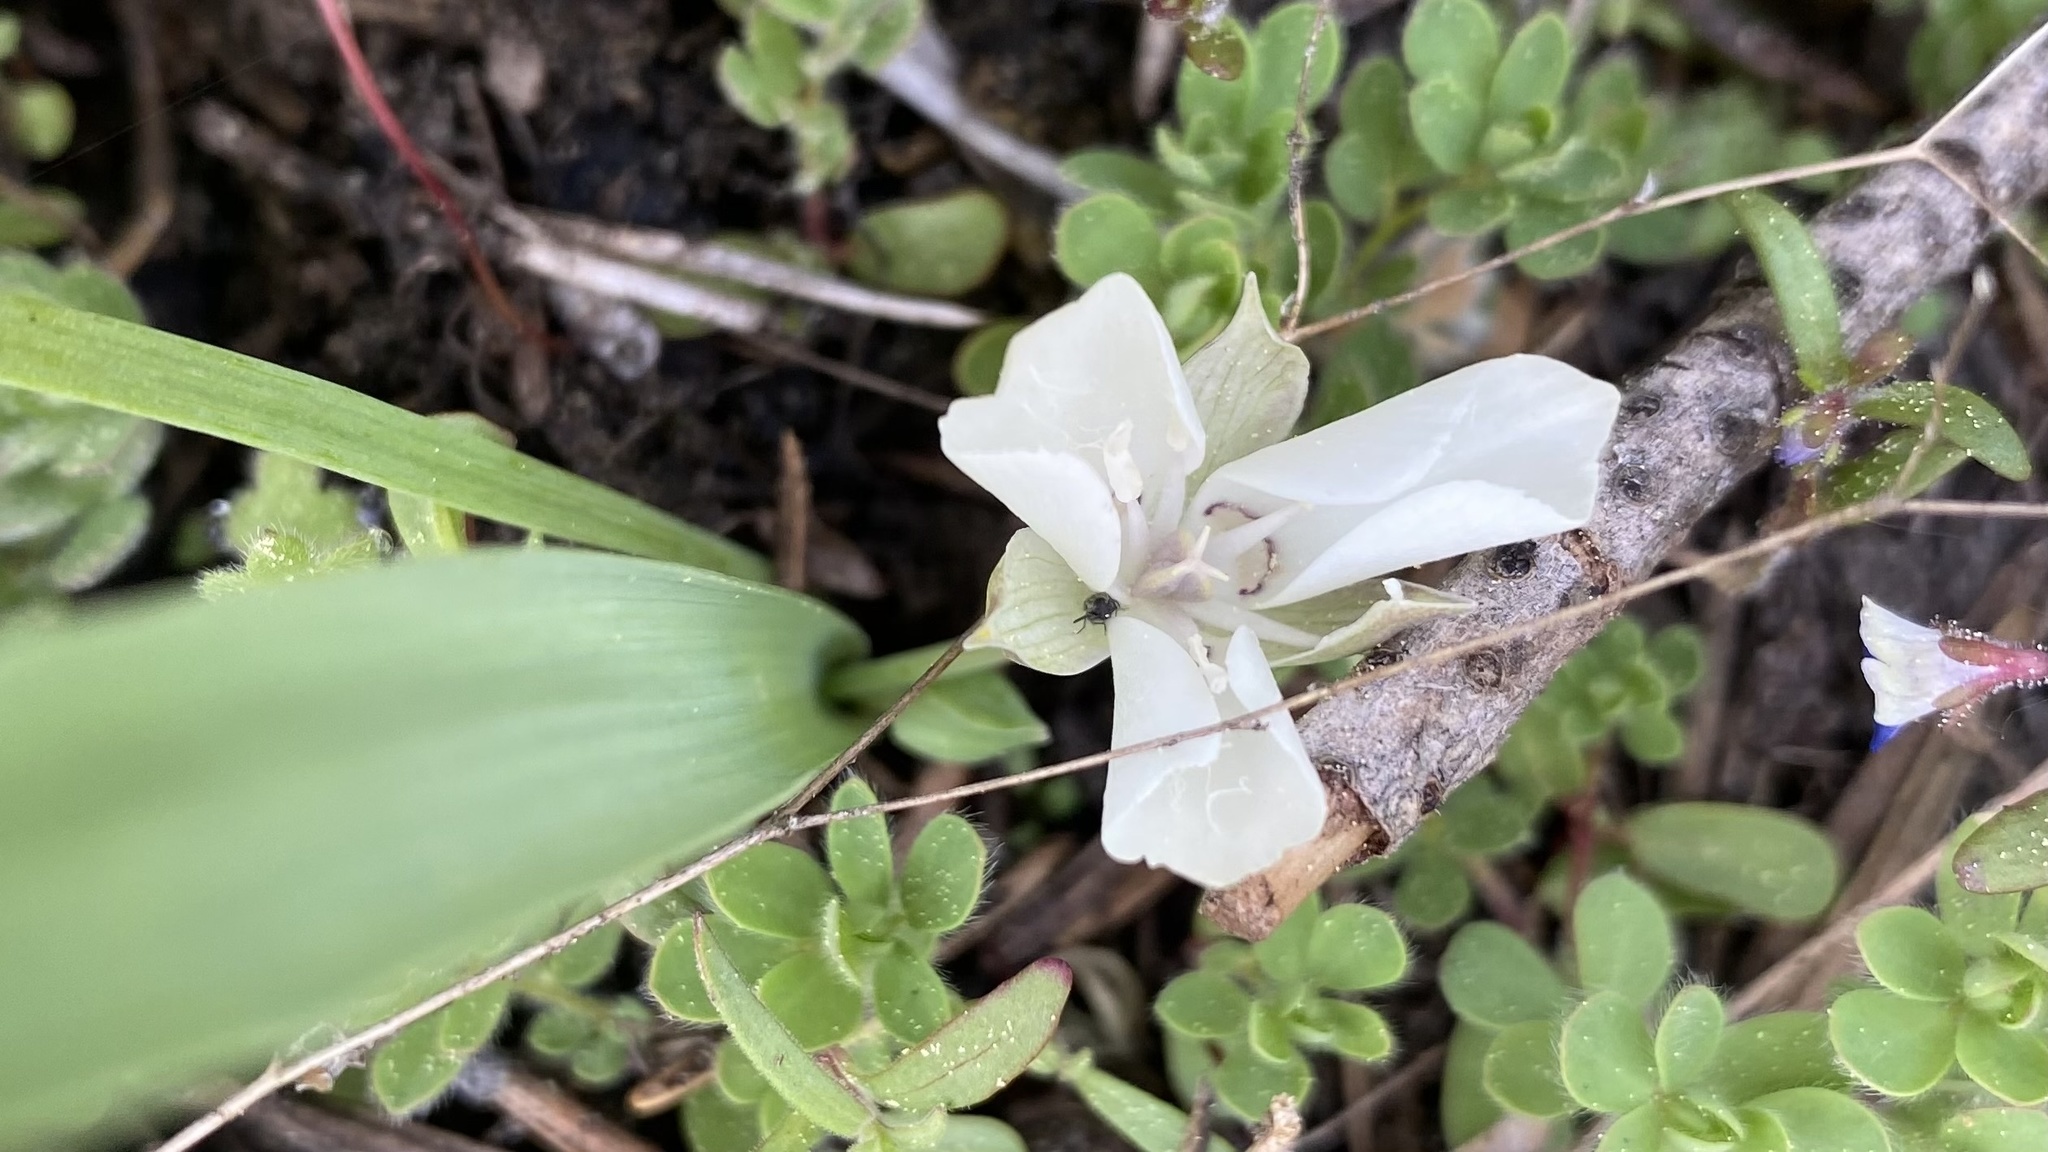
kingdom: Plantae
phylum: Tracheophyta
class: Liliopsida
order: Liliales
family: Liliaceae
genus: Calochortus
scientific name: Calochortus minimus
